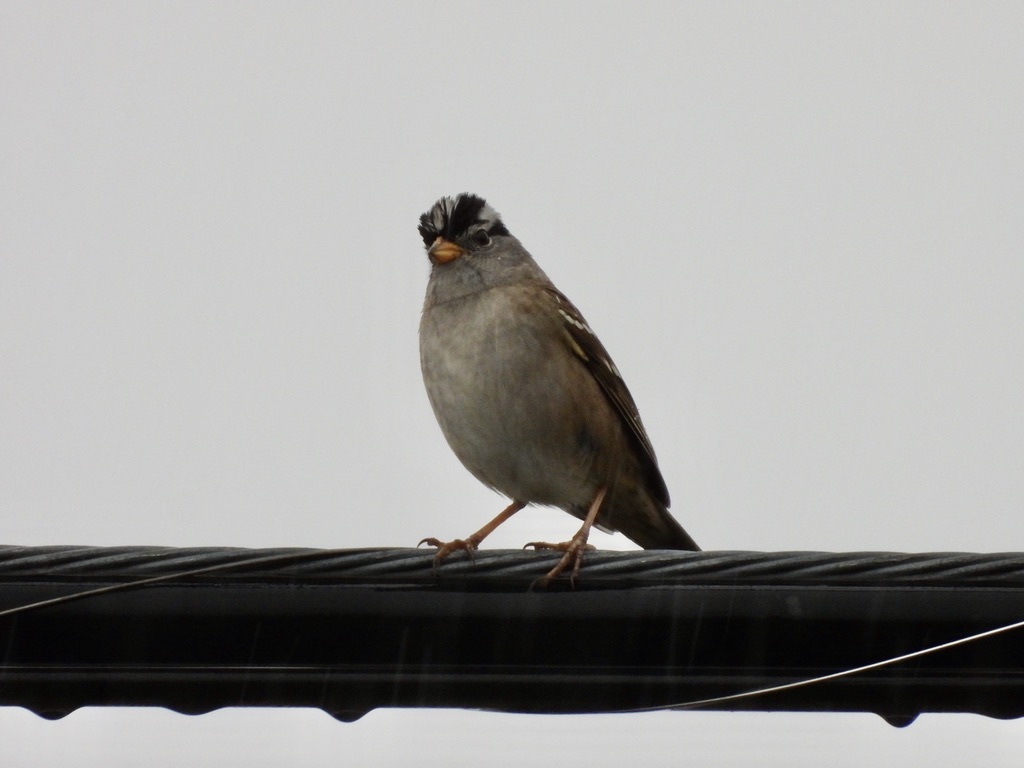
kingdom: Animalia
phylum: Chordata
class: Aves
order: Passeriformes
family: Passerellidae
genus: Zonotrichia
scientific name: Zonotrichia leucophrys
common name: White-crowned sparrow
